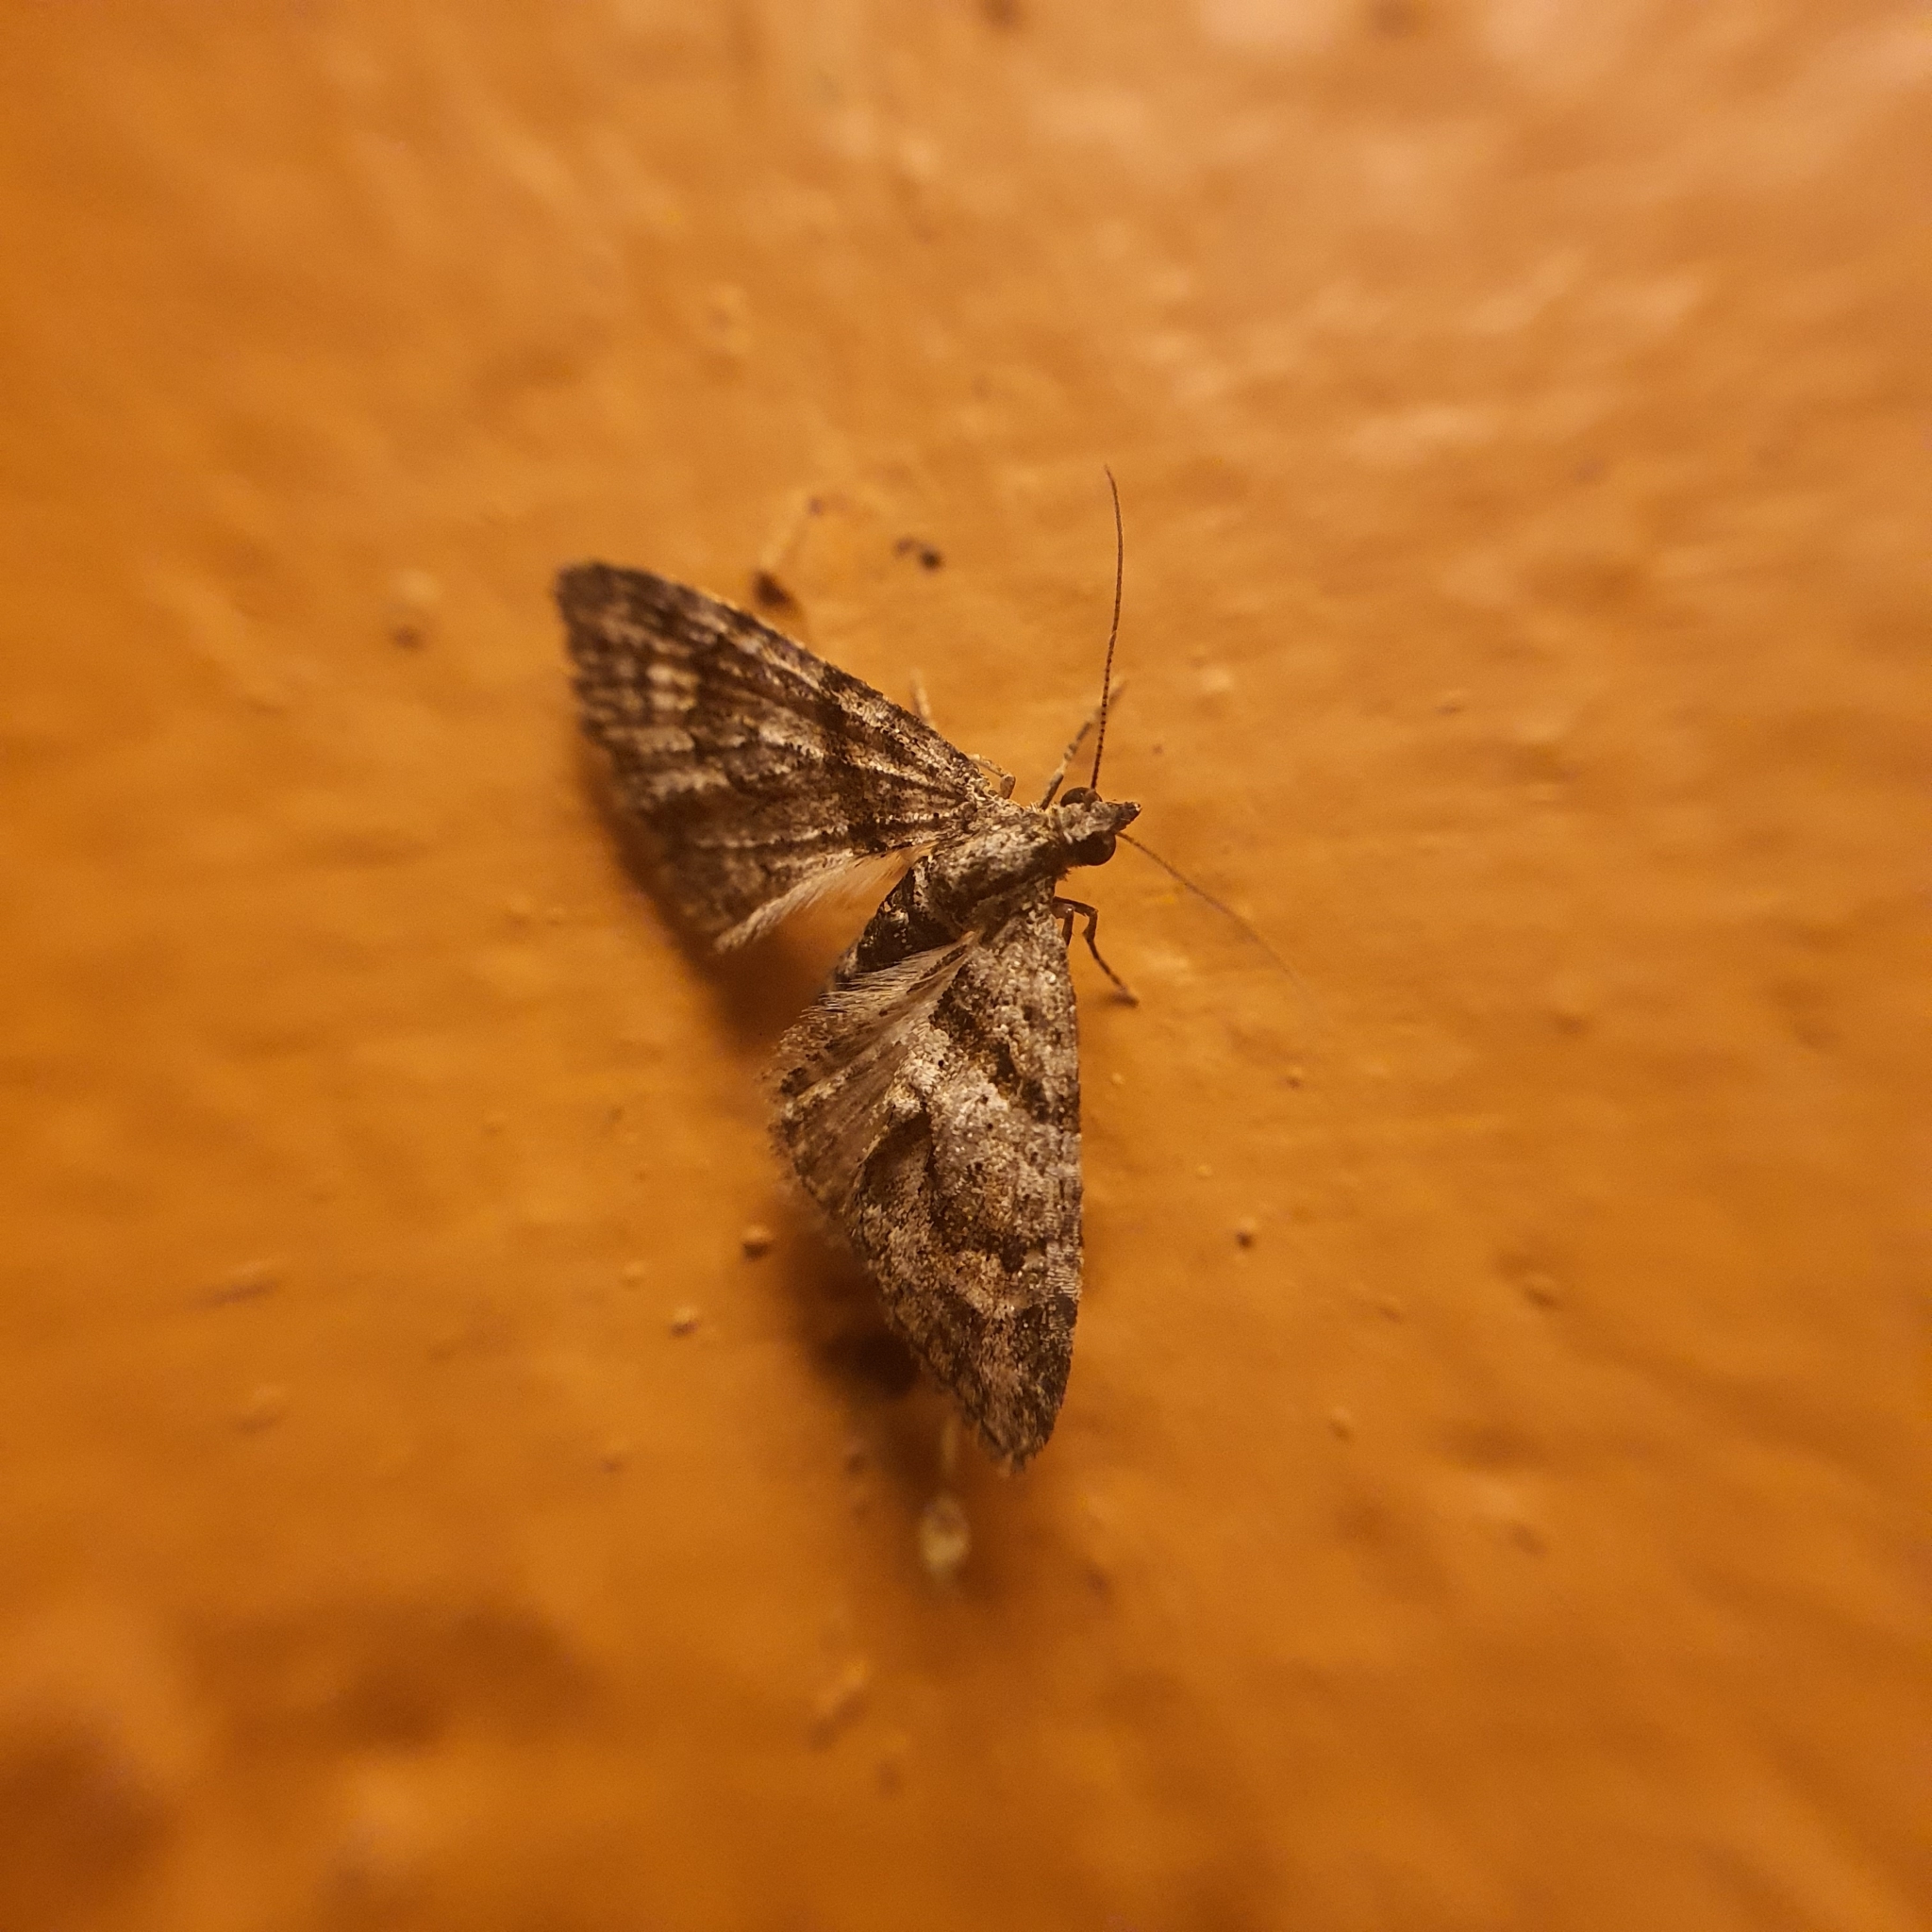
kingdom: Animalia
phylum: Arthropoda
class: Insecta
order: Lepidoptera
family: Geometridae
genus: Phrissogonus
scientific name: Phrissogonus laticostata
